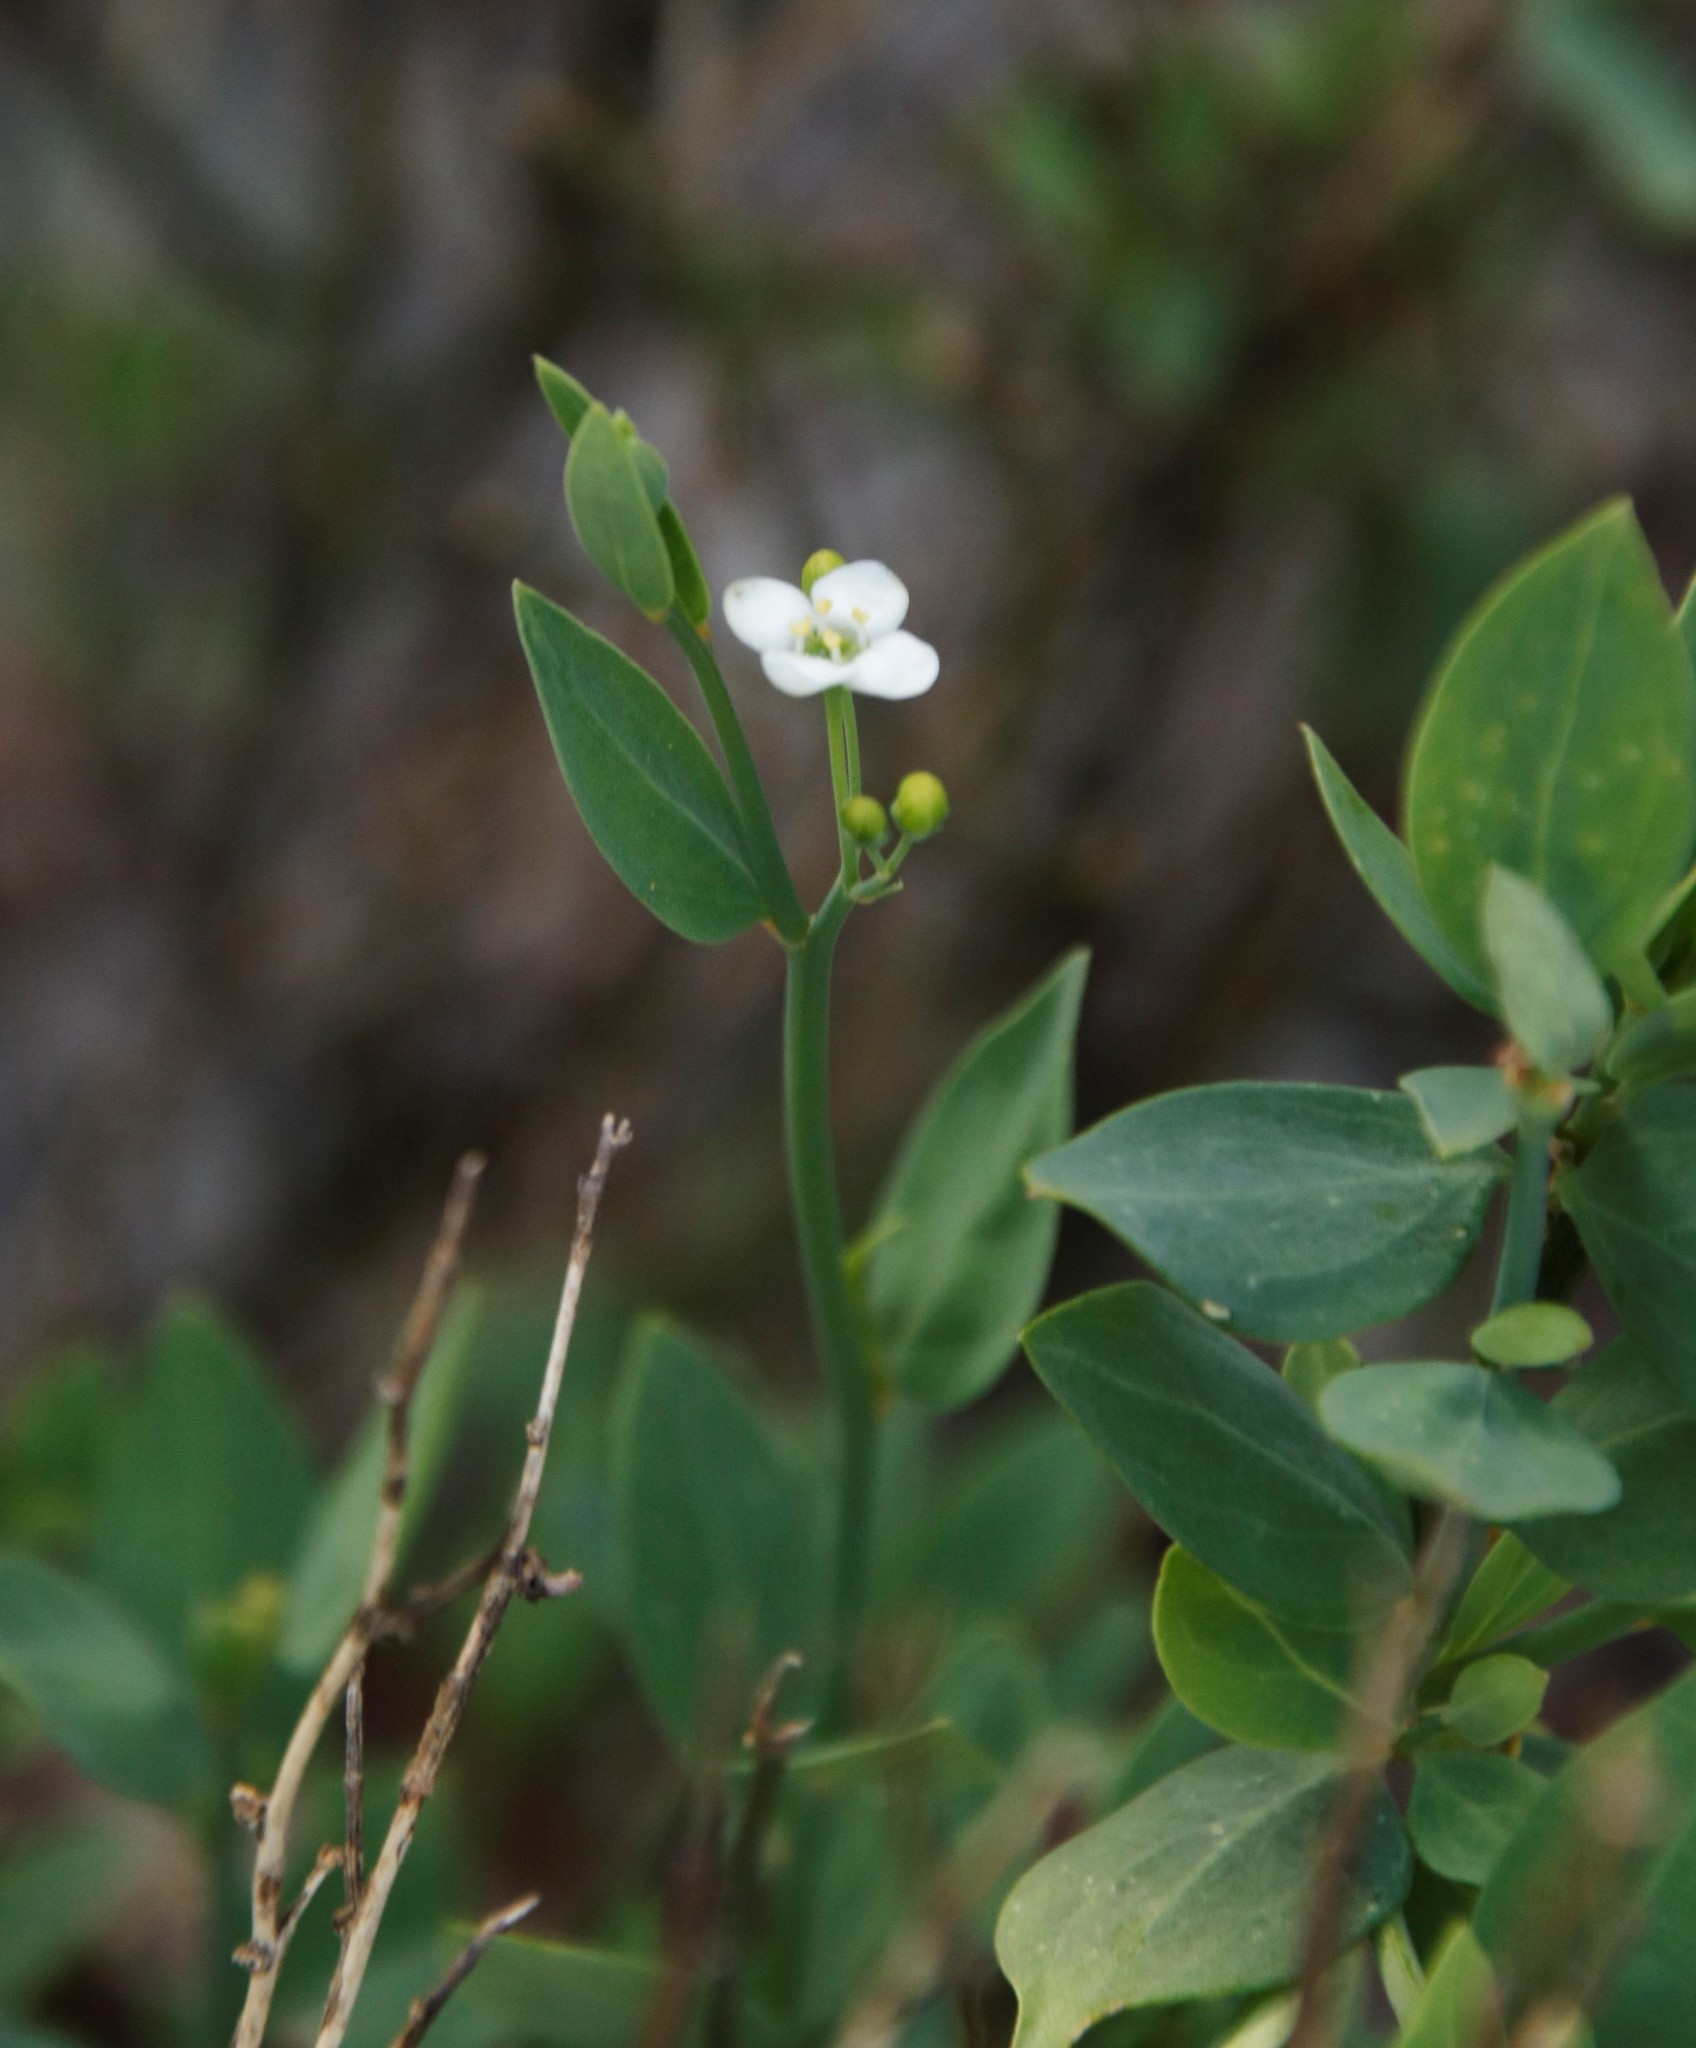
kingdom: Plantae
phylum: Tracheophyta
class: Magnoliopsida
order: Solanales
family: Montiniaceae
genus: Montinia
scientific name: Montinia caryophyllacea
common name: Wild clove-bush
